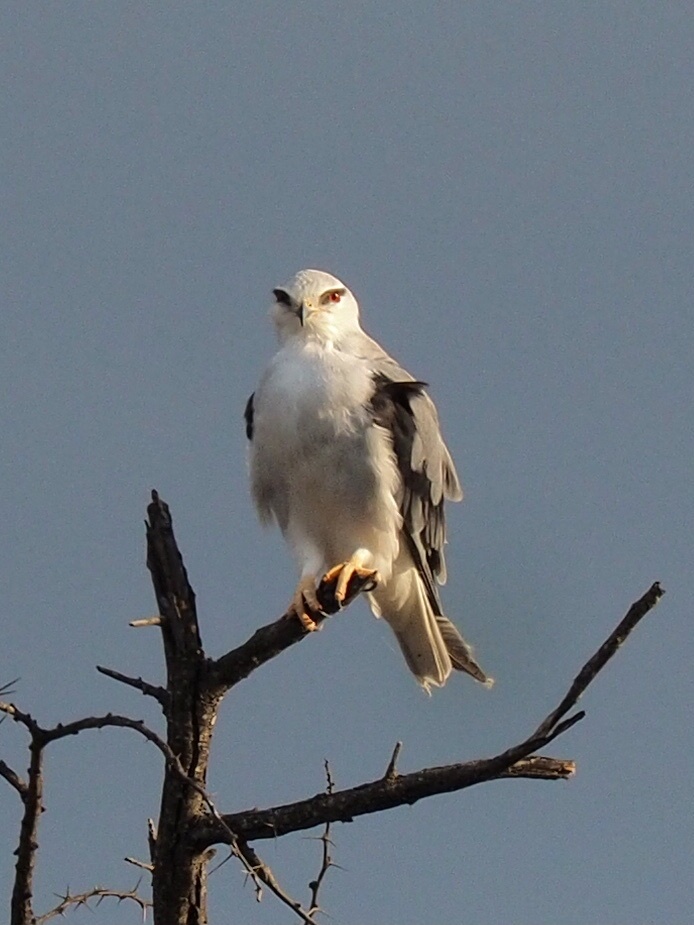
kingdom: Animalia
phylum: Chordata
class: Aves
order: Accipitriformes
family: Accipitridae
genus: Elanus
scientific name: Elanus caeruleus
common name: Black-winged kite
